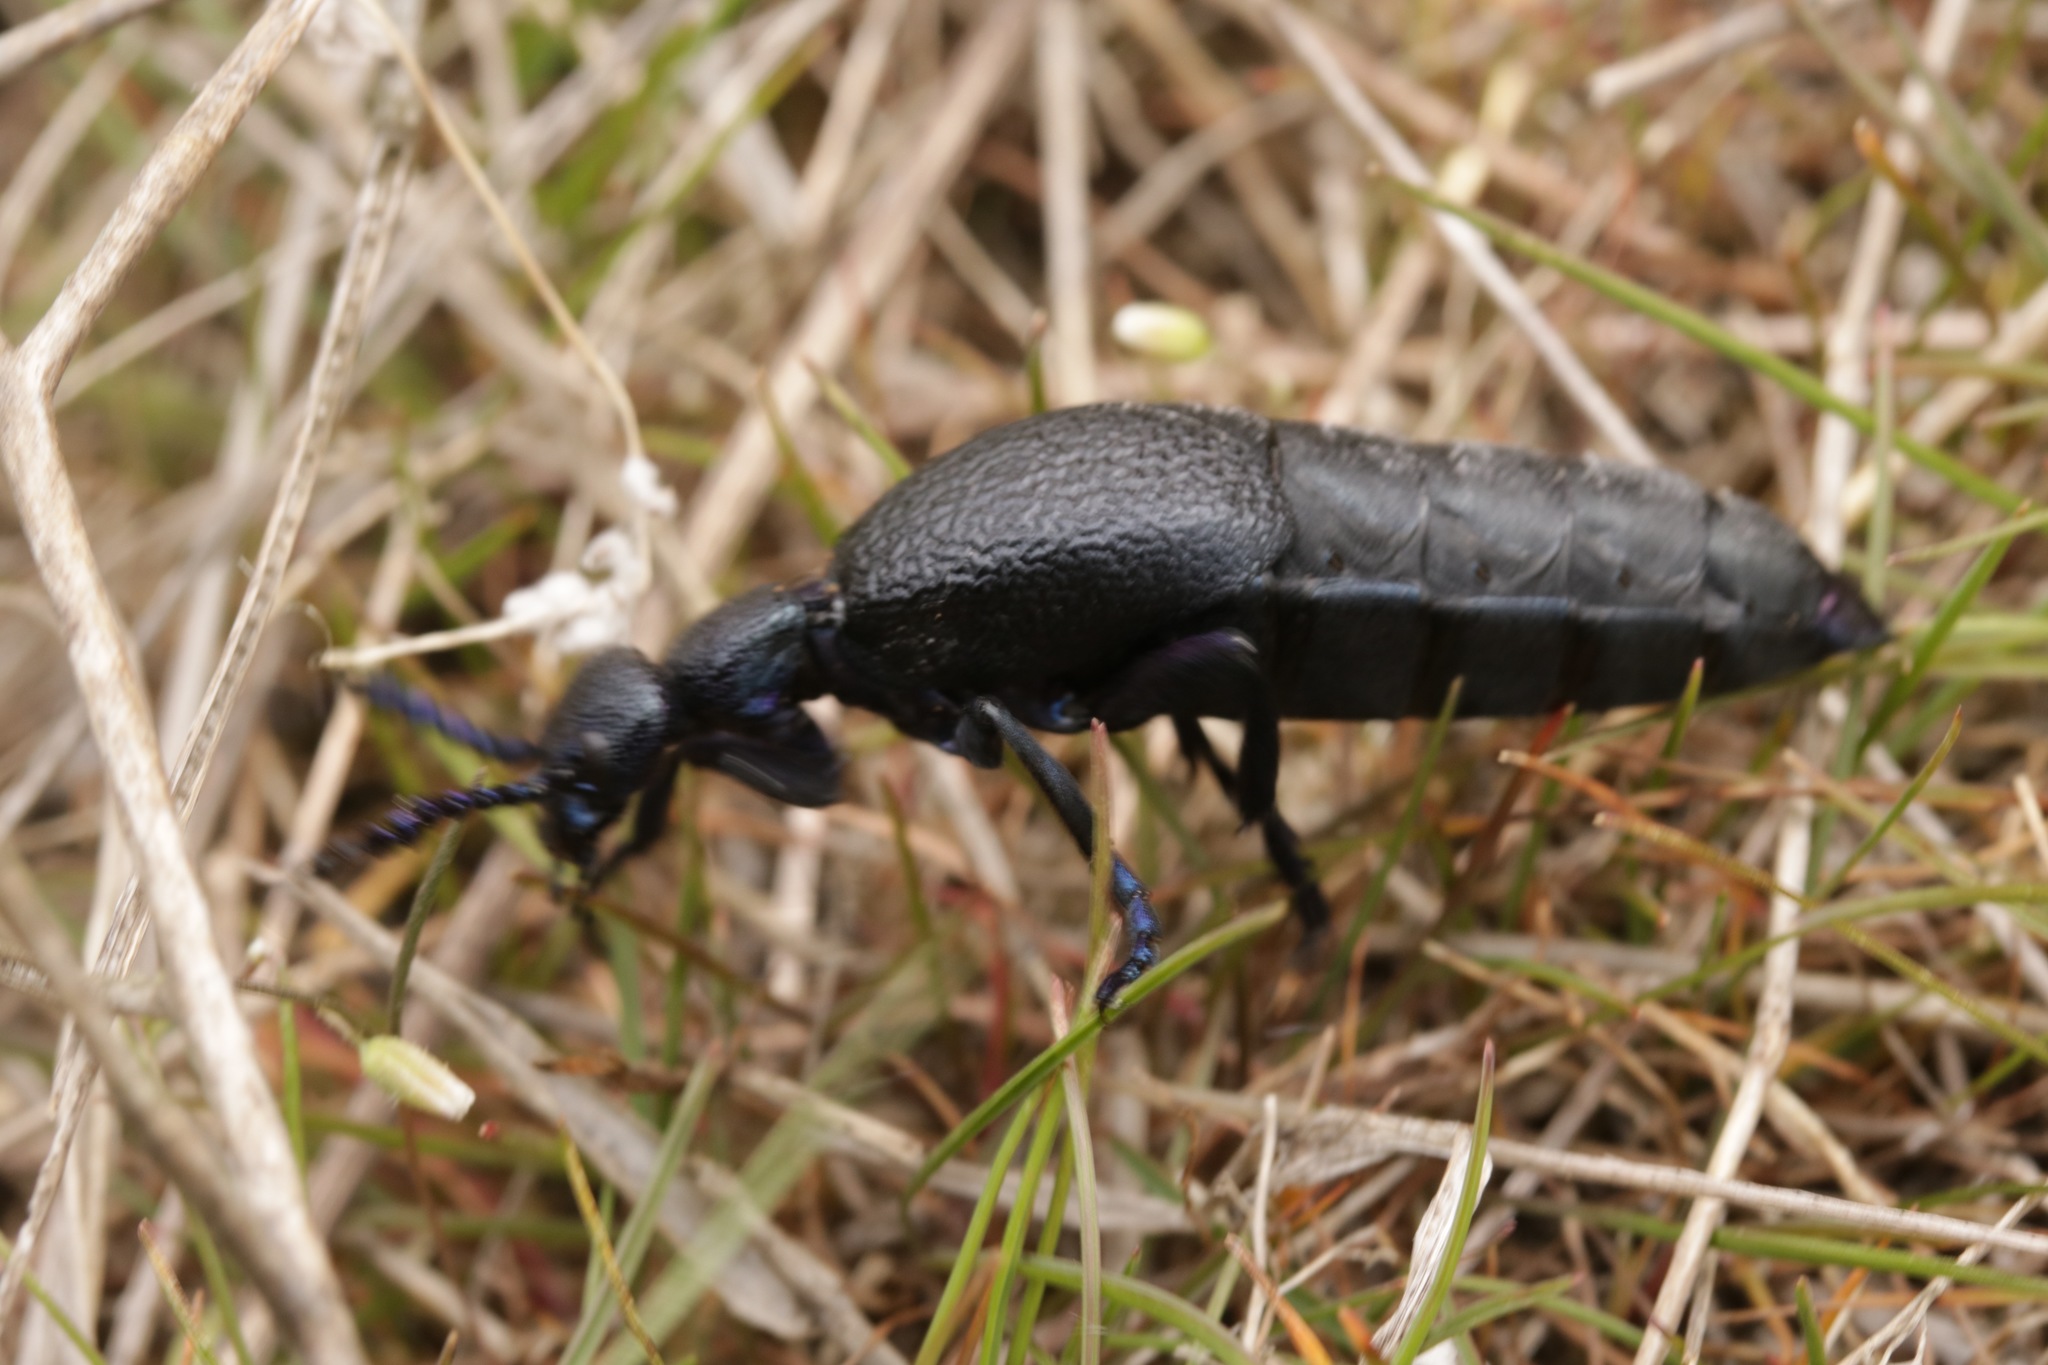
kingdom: Animalia
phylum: Arthropoda
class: Insecta
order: Coleoptera
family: Meloidae
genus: Meloe
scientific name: Meloe proscarabaeus
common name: Black oil-beetle
